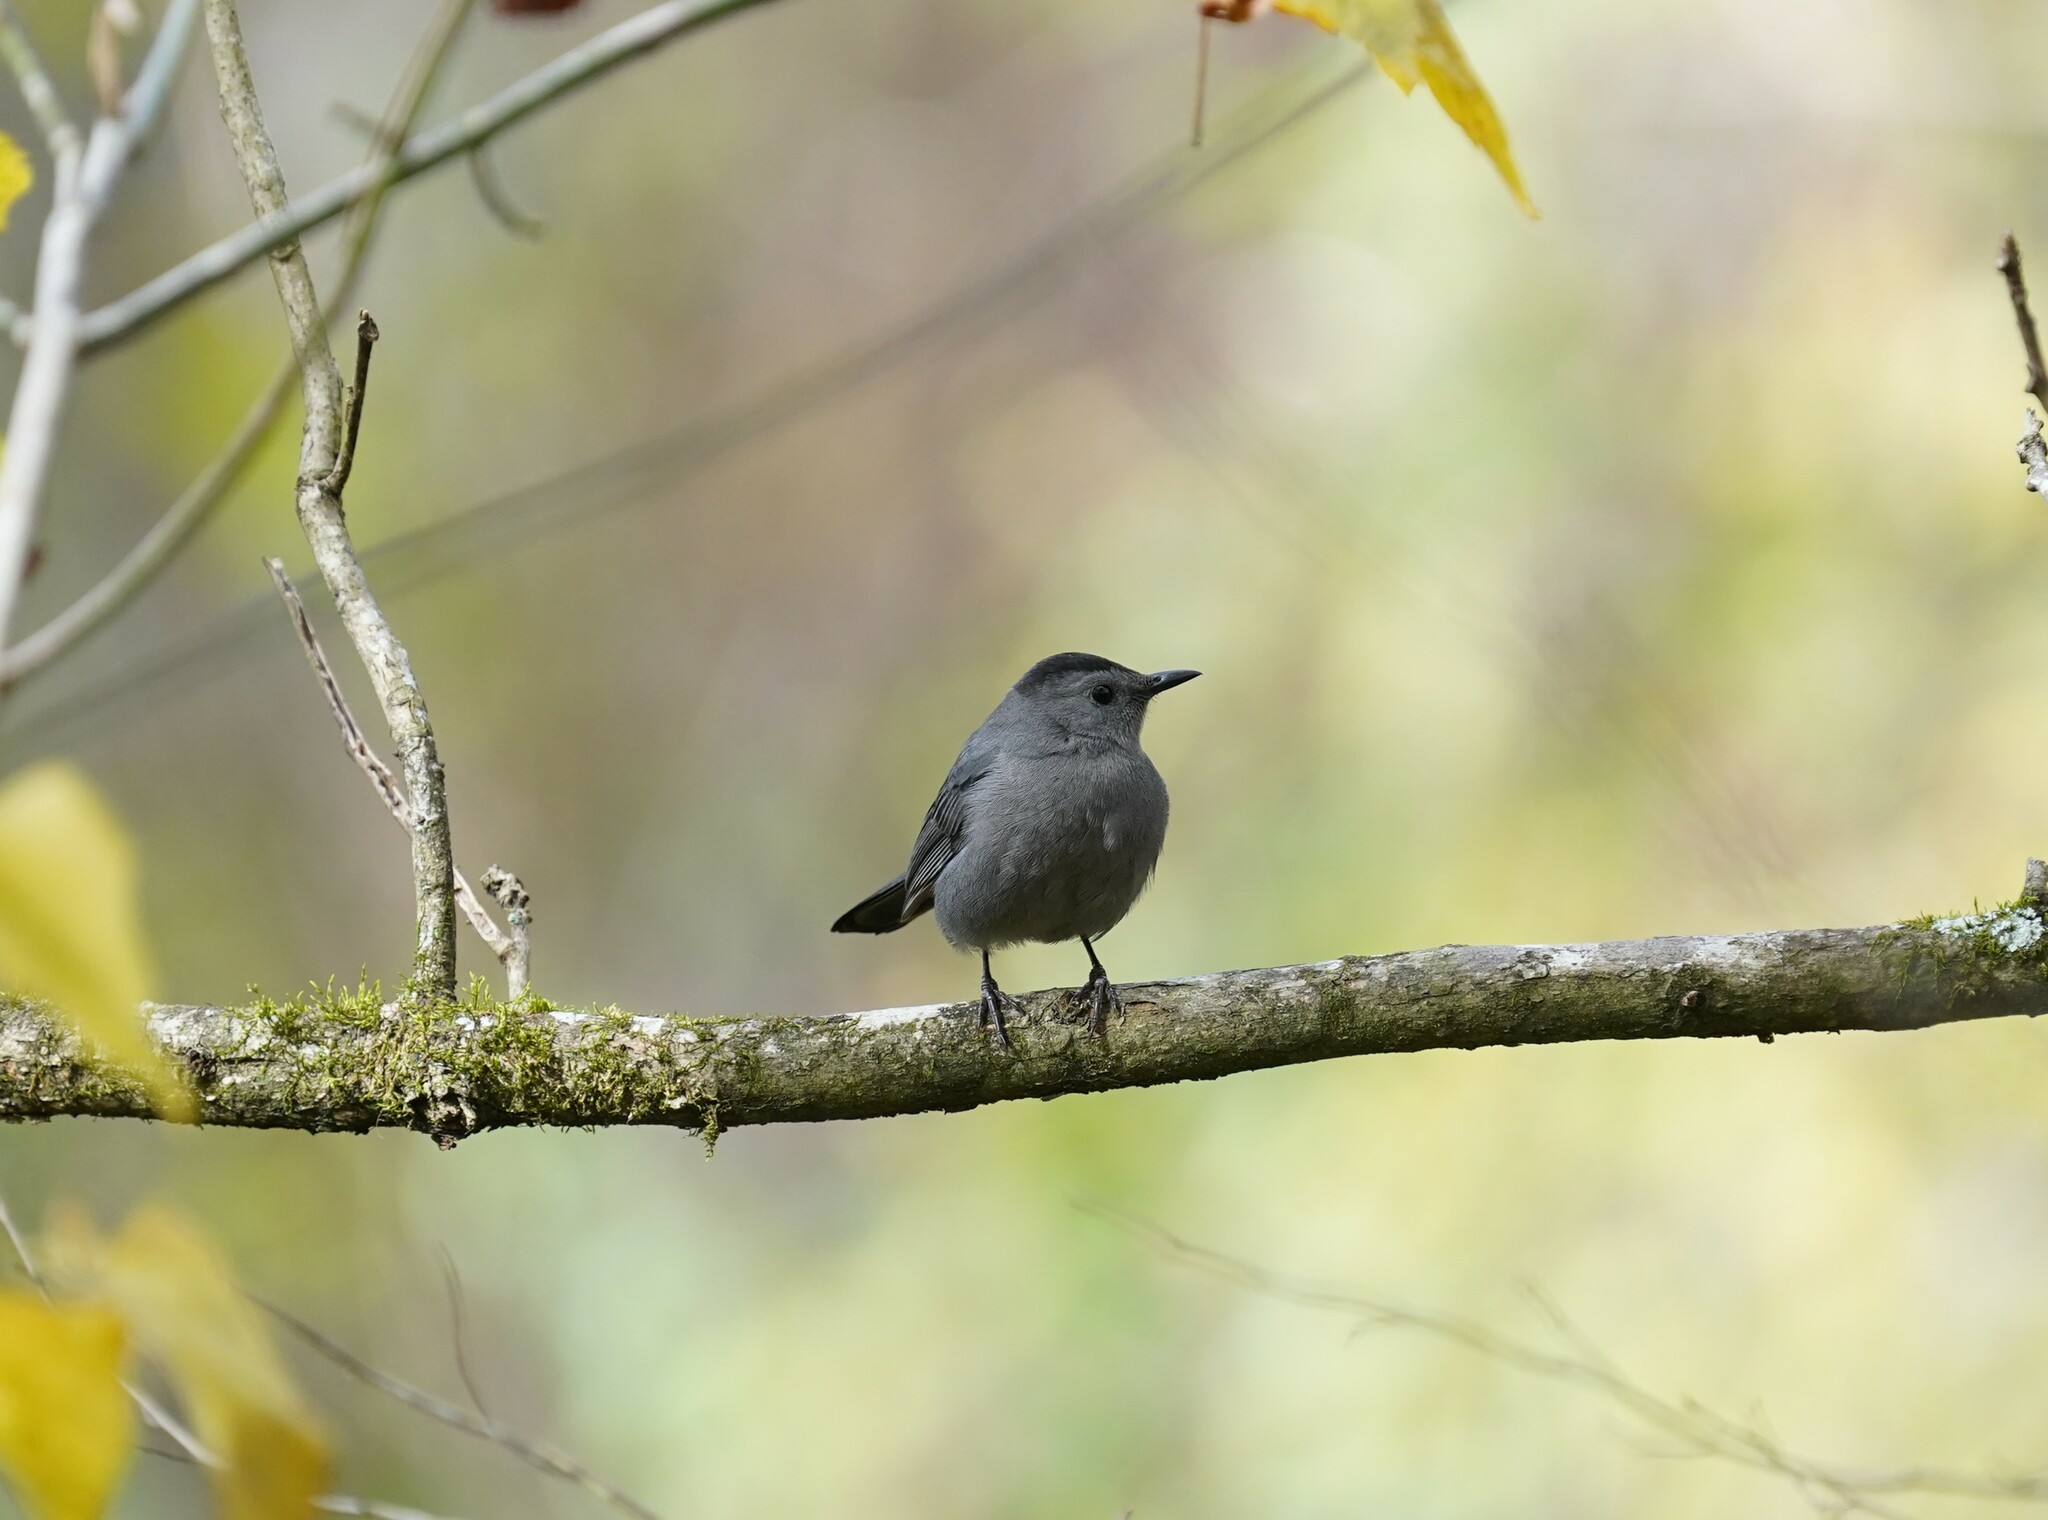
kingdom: Animalia
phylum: Chordata
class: Aves
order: Passeriformes
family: Mimidae
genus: Dumetella
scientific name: Dumetella carolinensis
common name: Gray catbird
